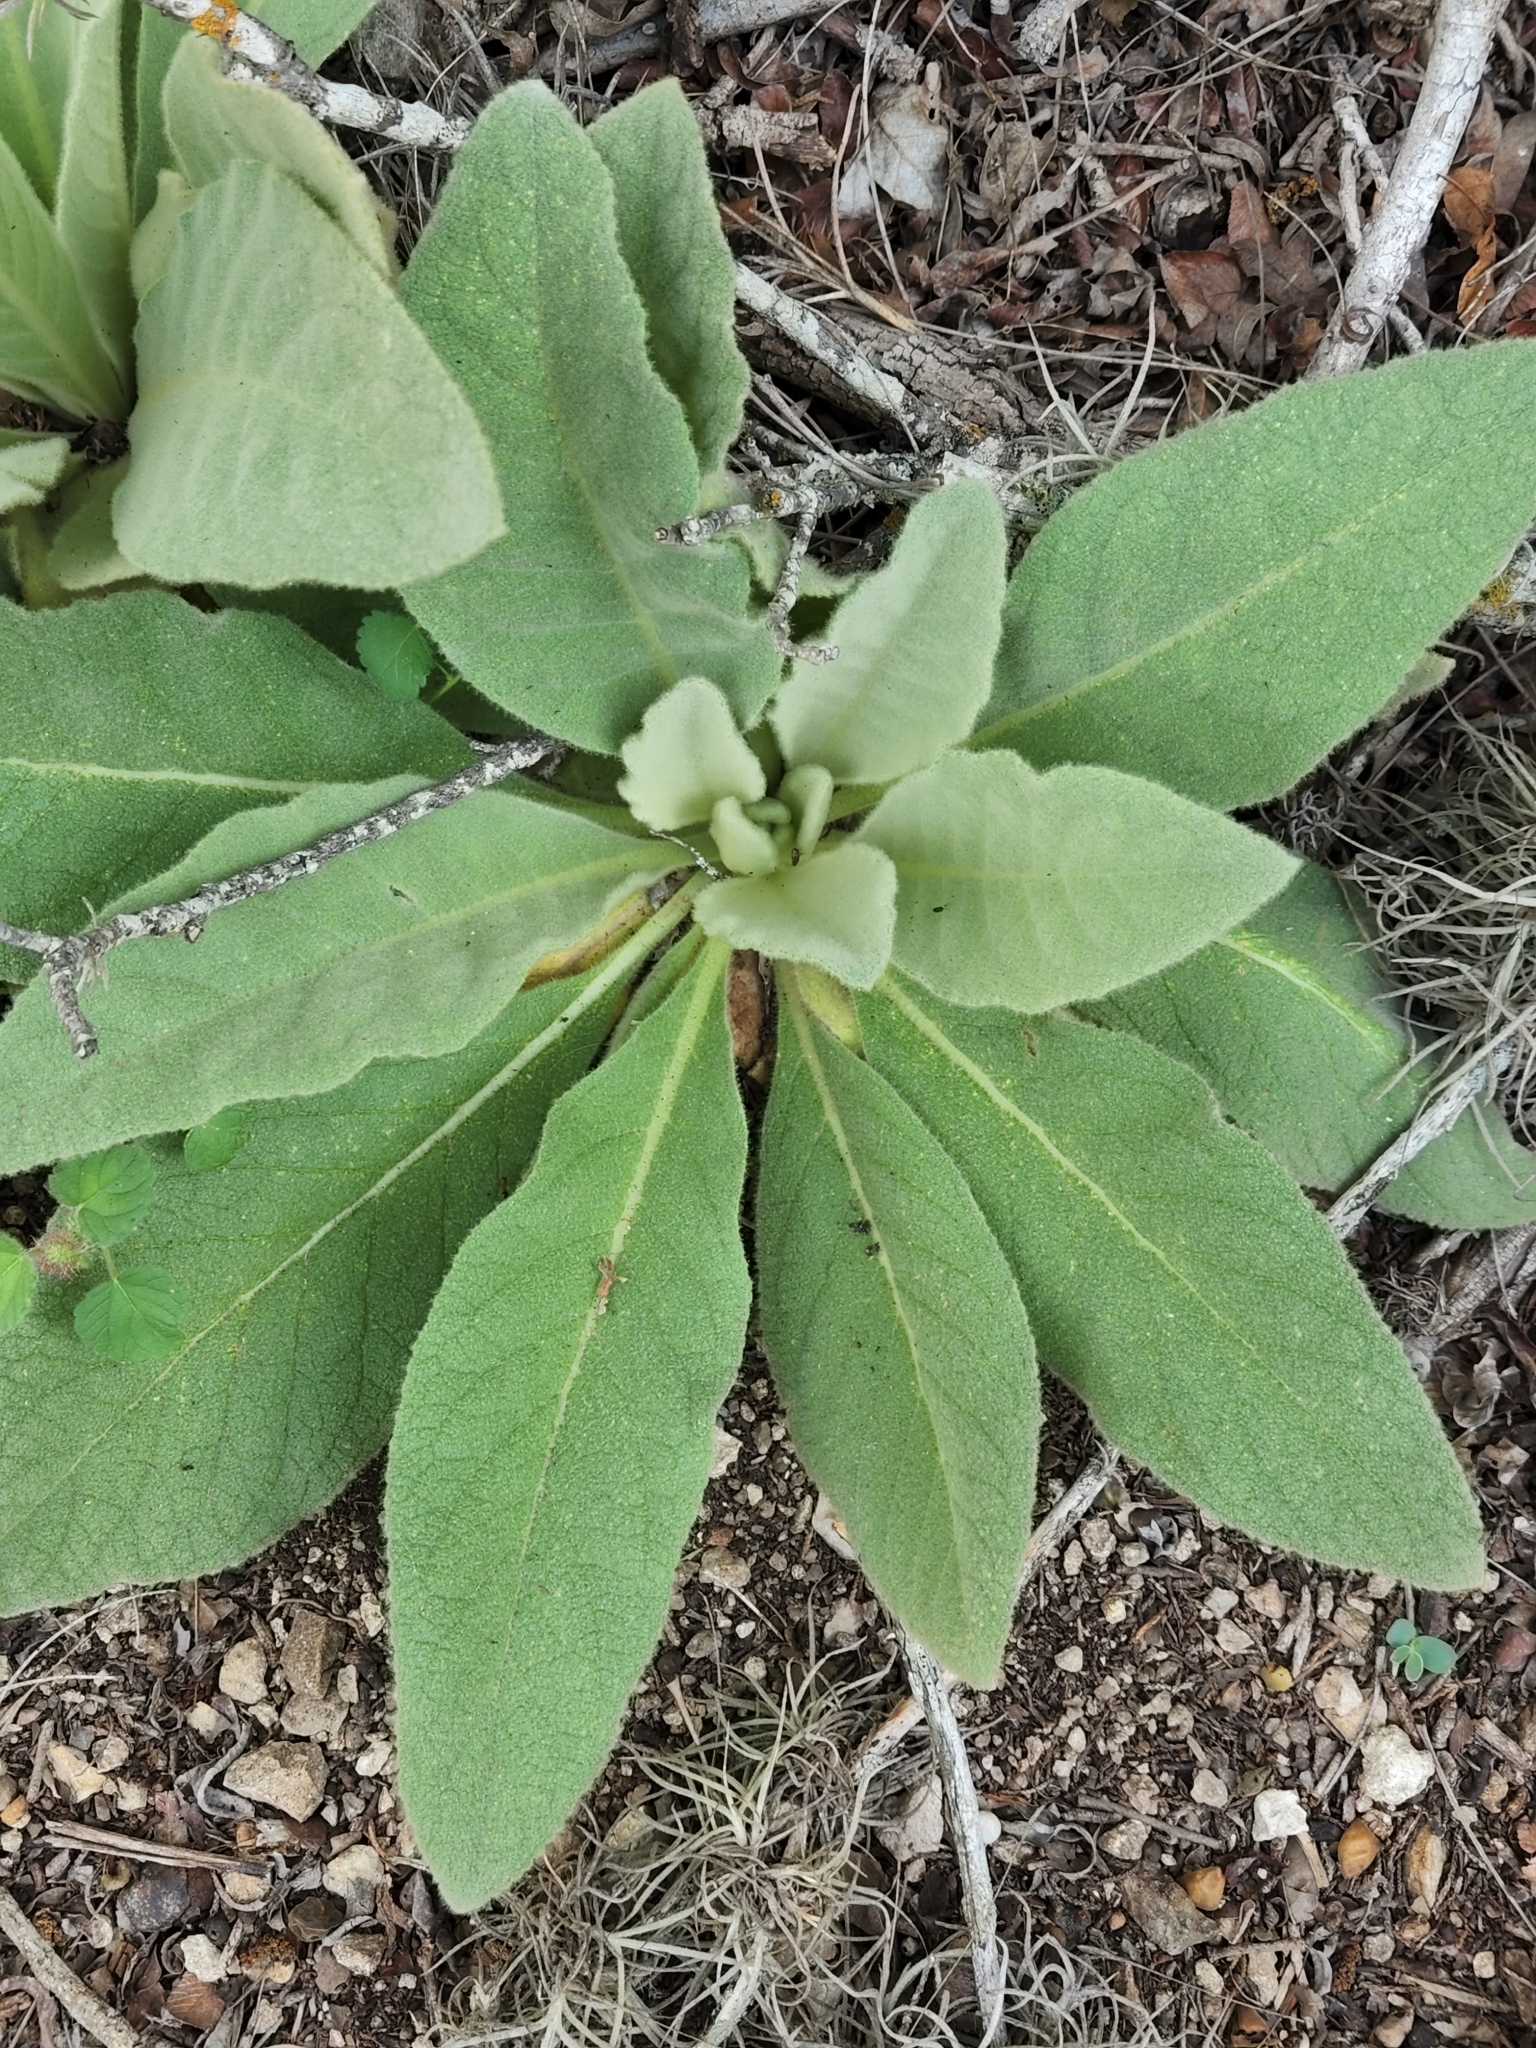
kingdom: Plantae
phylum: Tracheophyta
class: Magnoliopsida
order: Lamiales
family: Scrophulariaceae
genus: Verbascum
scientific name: Verbascum thapsus
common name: Common mullein
